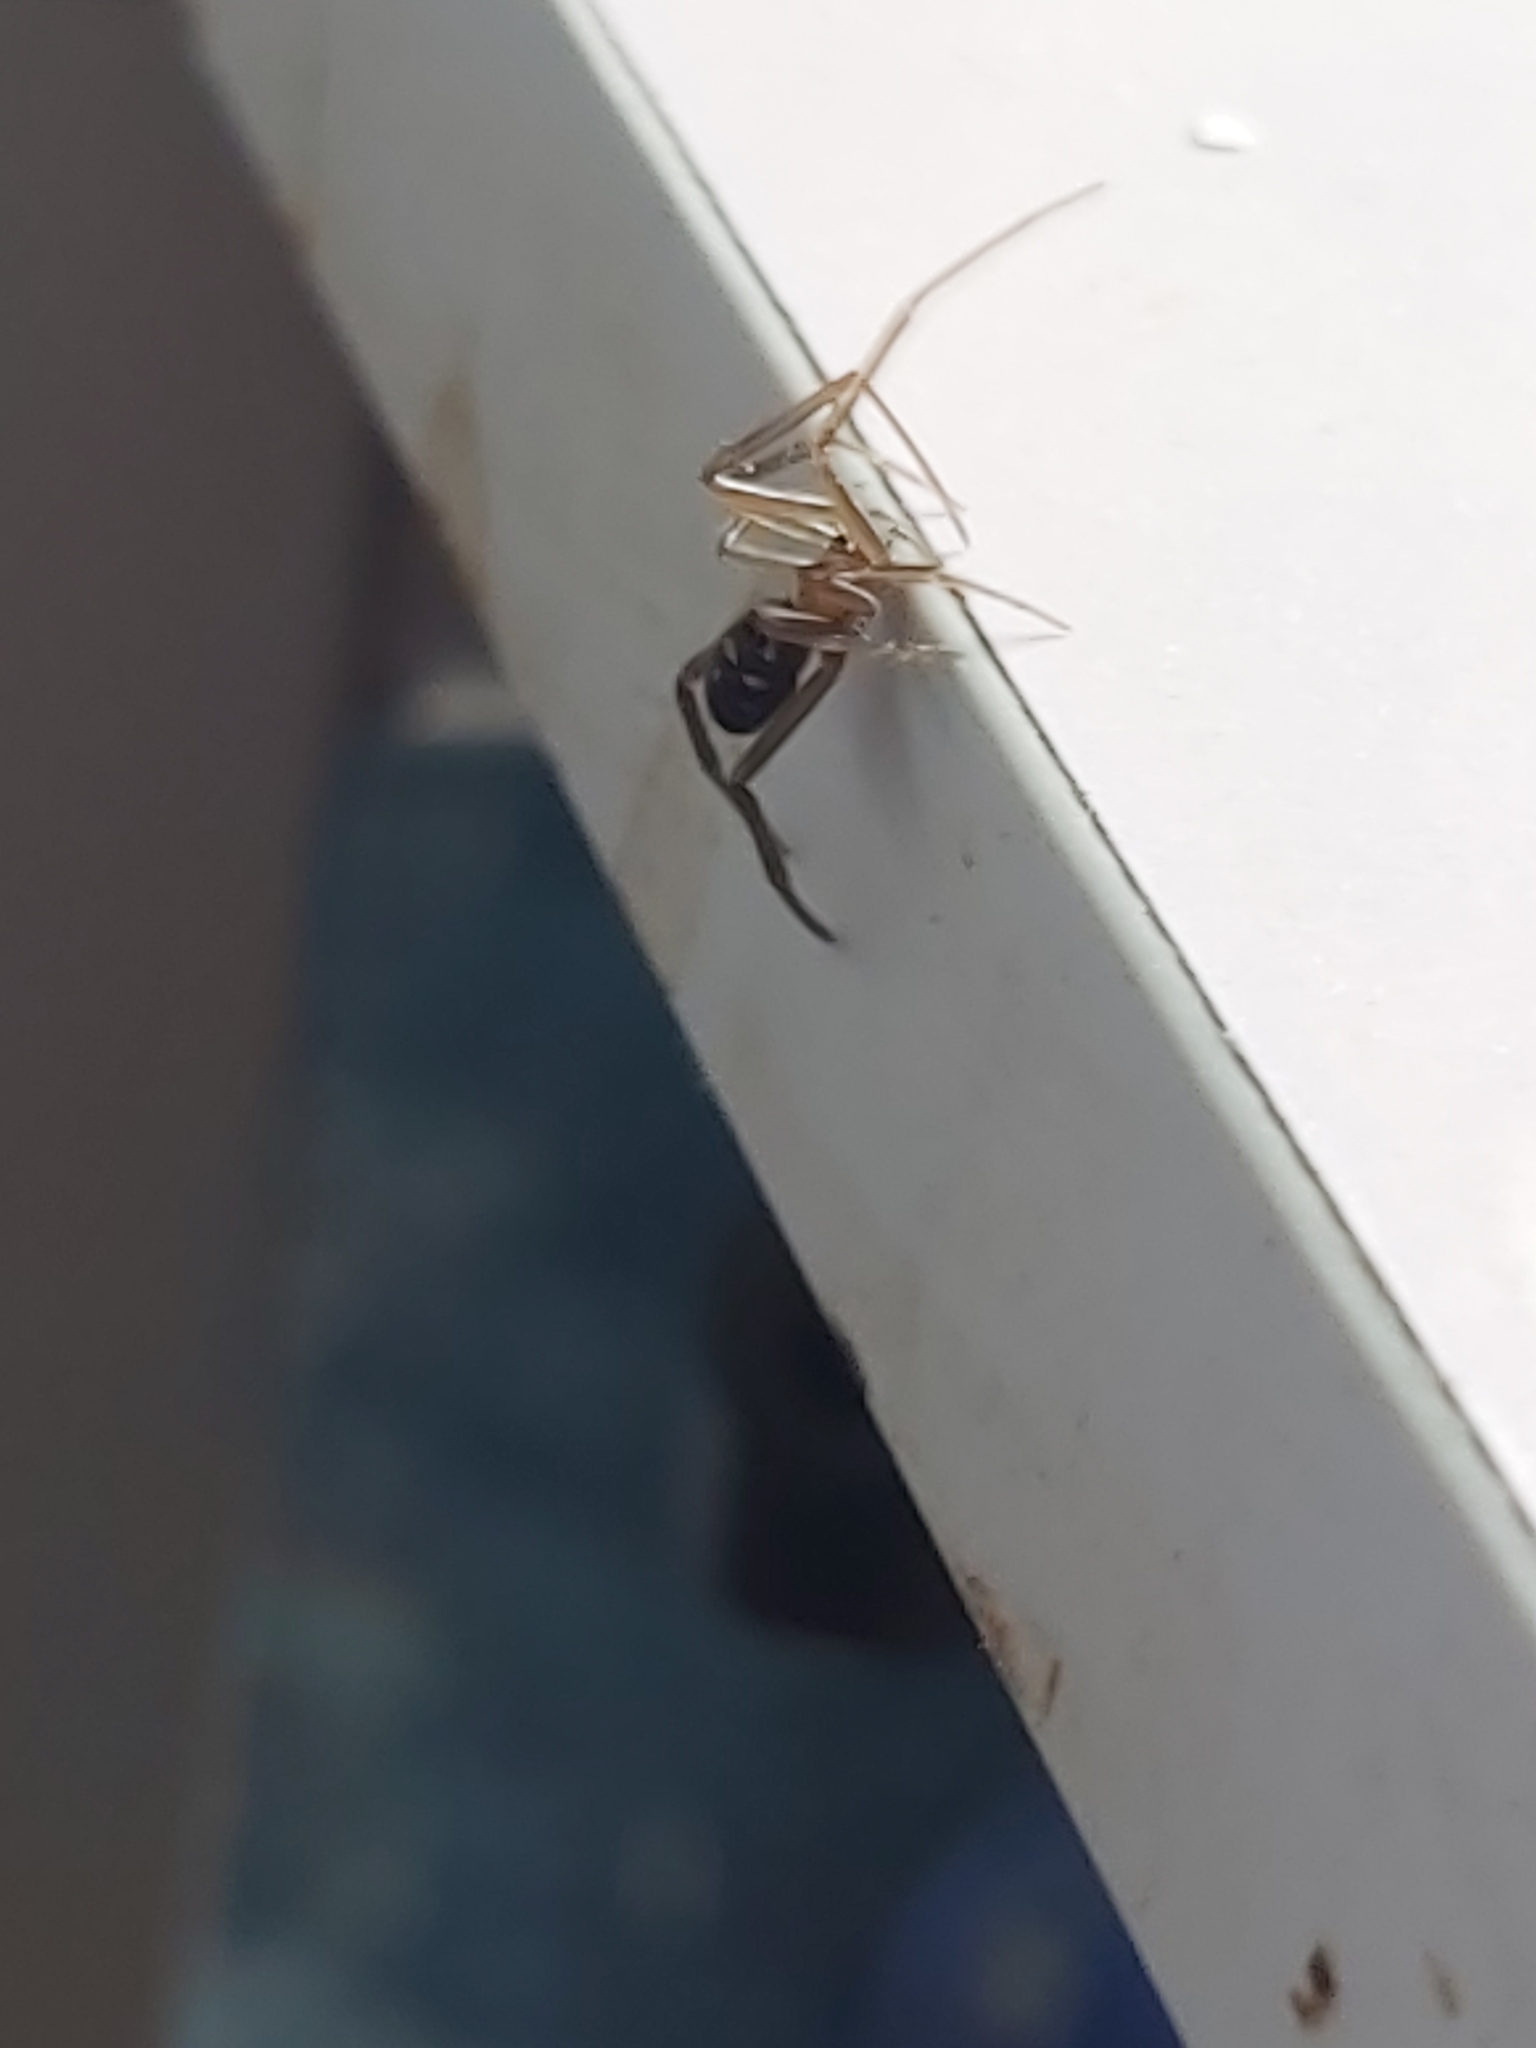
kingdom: Animalia
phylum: Arthropoda
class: Arachnida
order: Araneae
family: Theridiidae
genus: Steatoda
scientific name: Steatoda grossa
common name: False black widow
